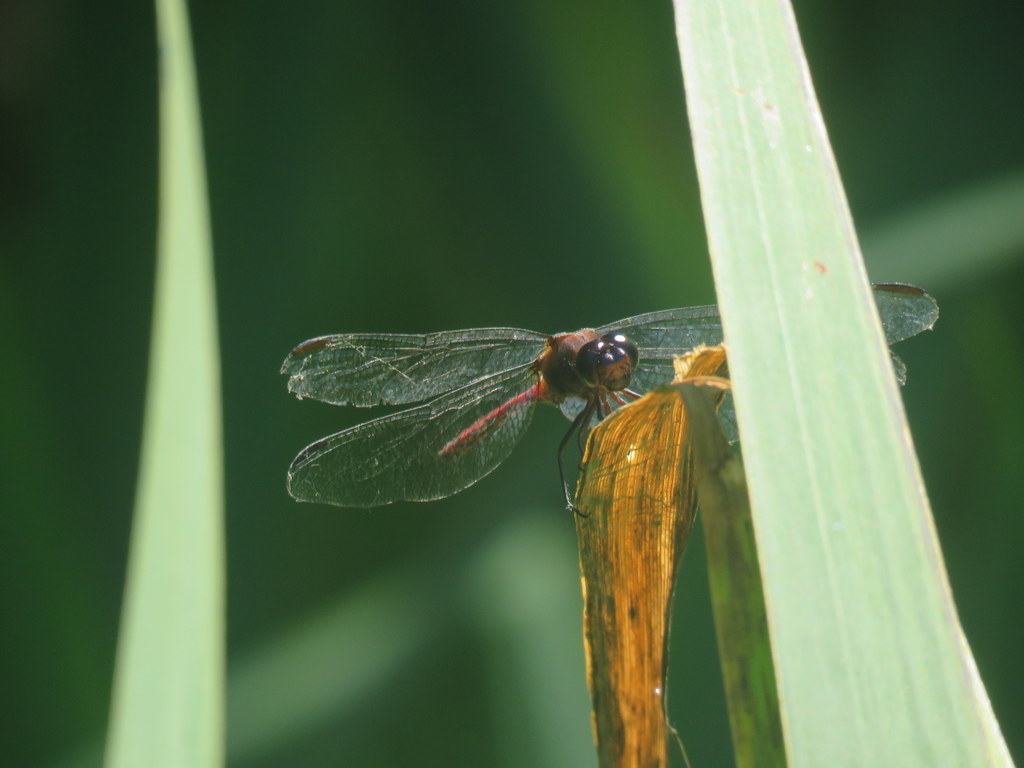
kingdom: Animalia
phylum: Arthropoda
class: Insecta
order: Odonata
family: Libellulidae
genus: Orthemis
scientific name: Orthemis ambinigra
